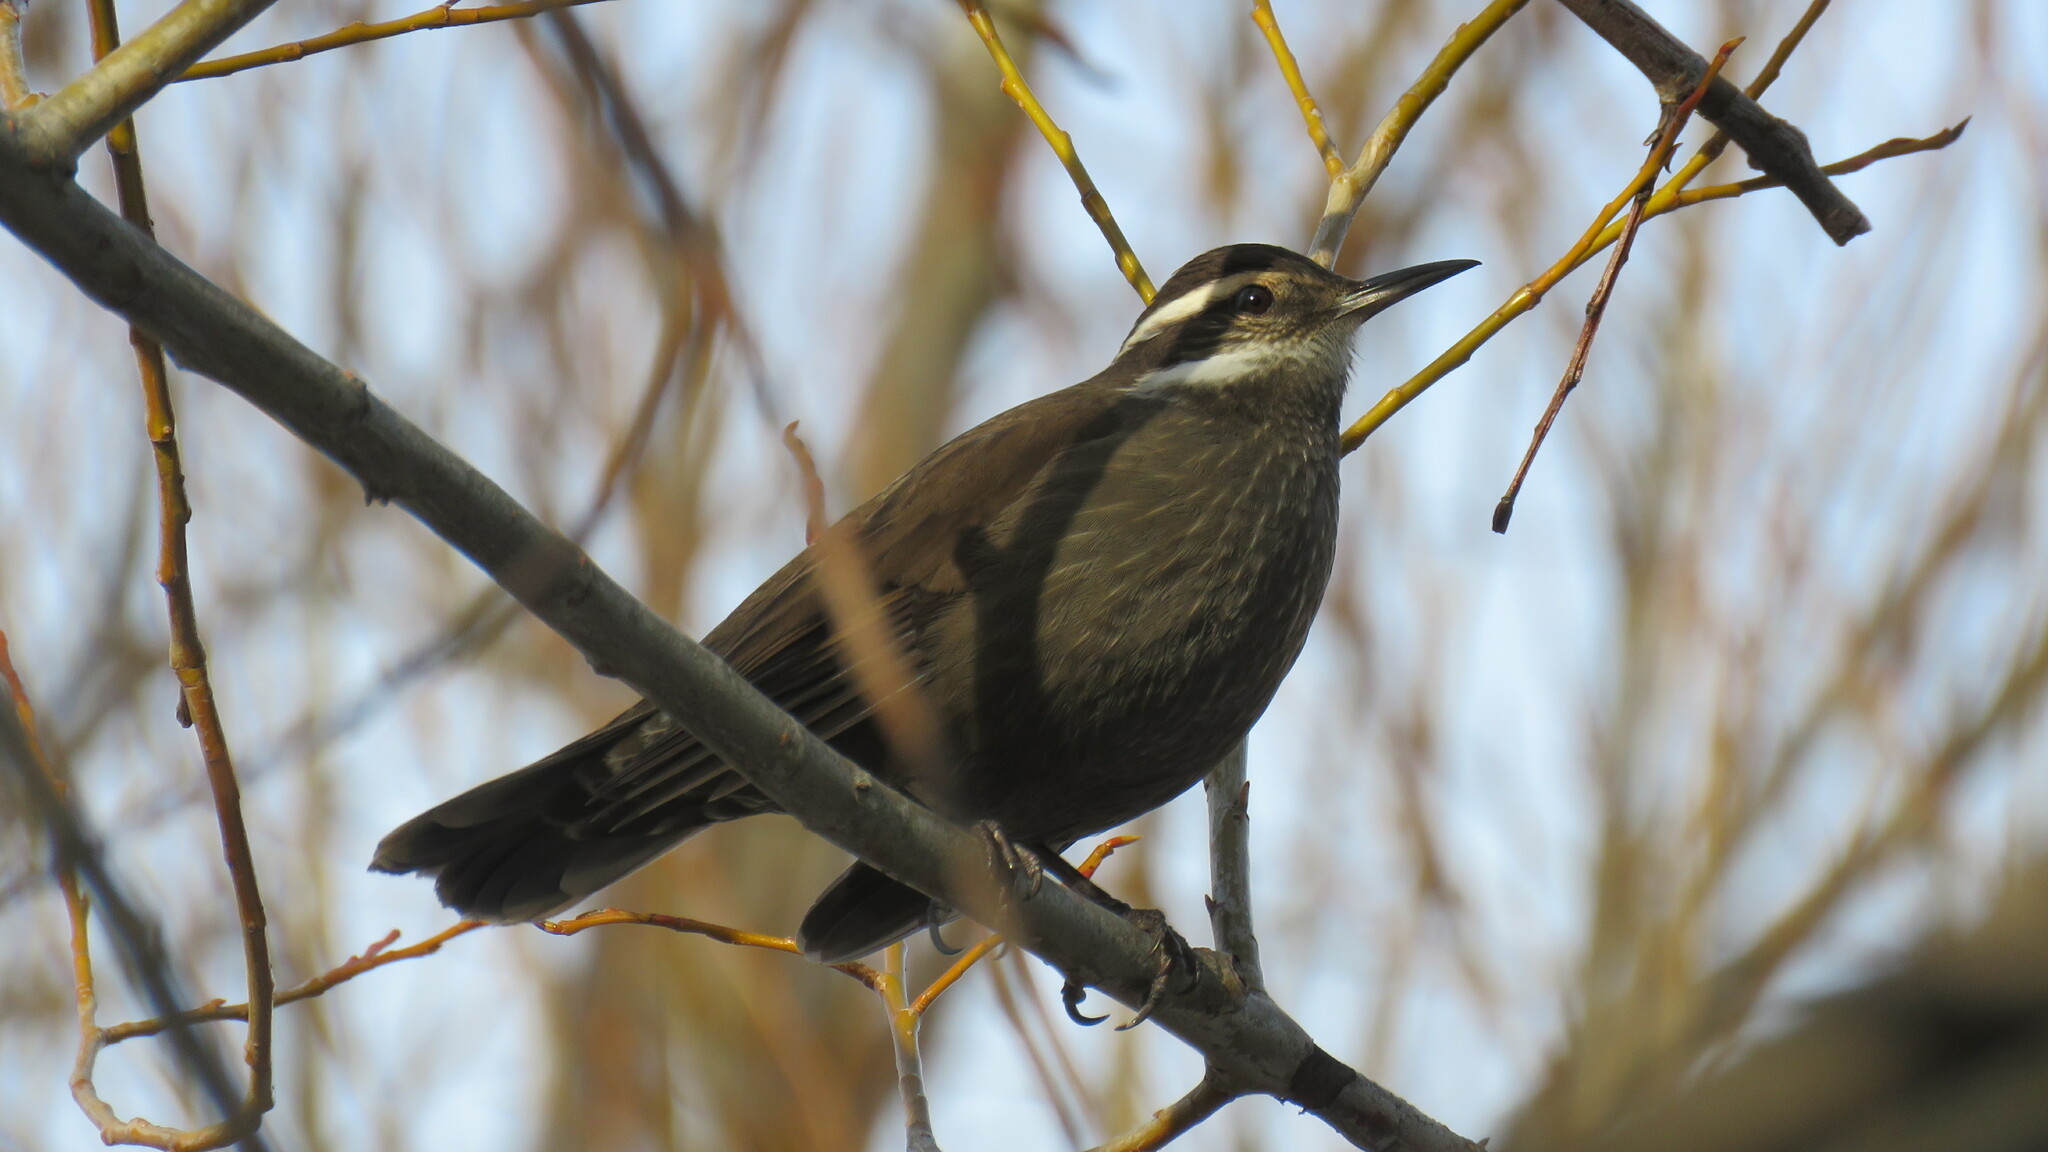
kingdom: Animalia
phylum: Chordata
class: Aves
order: Passeriformes
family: Furnariidae
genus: Cinclodes
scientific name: Cinclodes patagonicus
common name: Dark-bellied cinclodes
